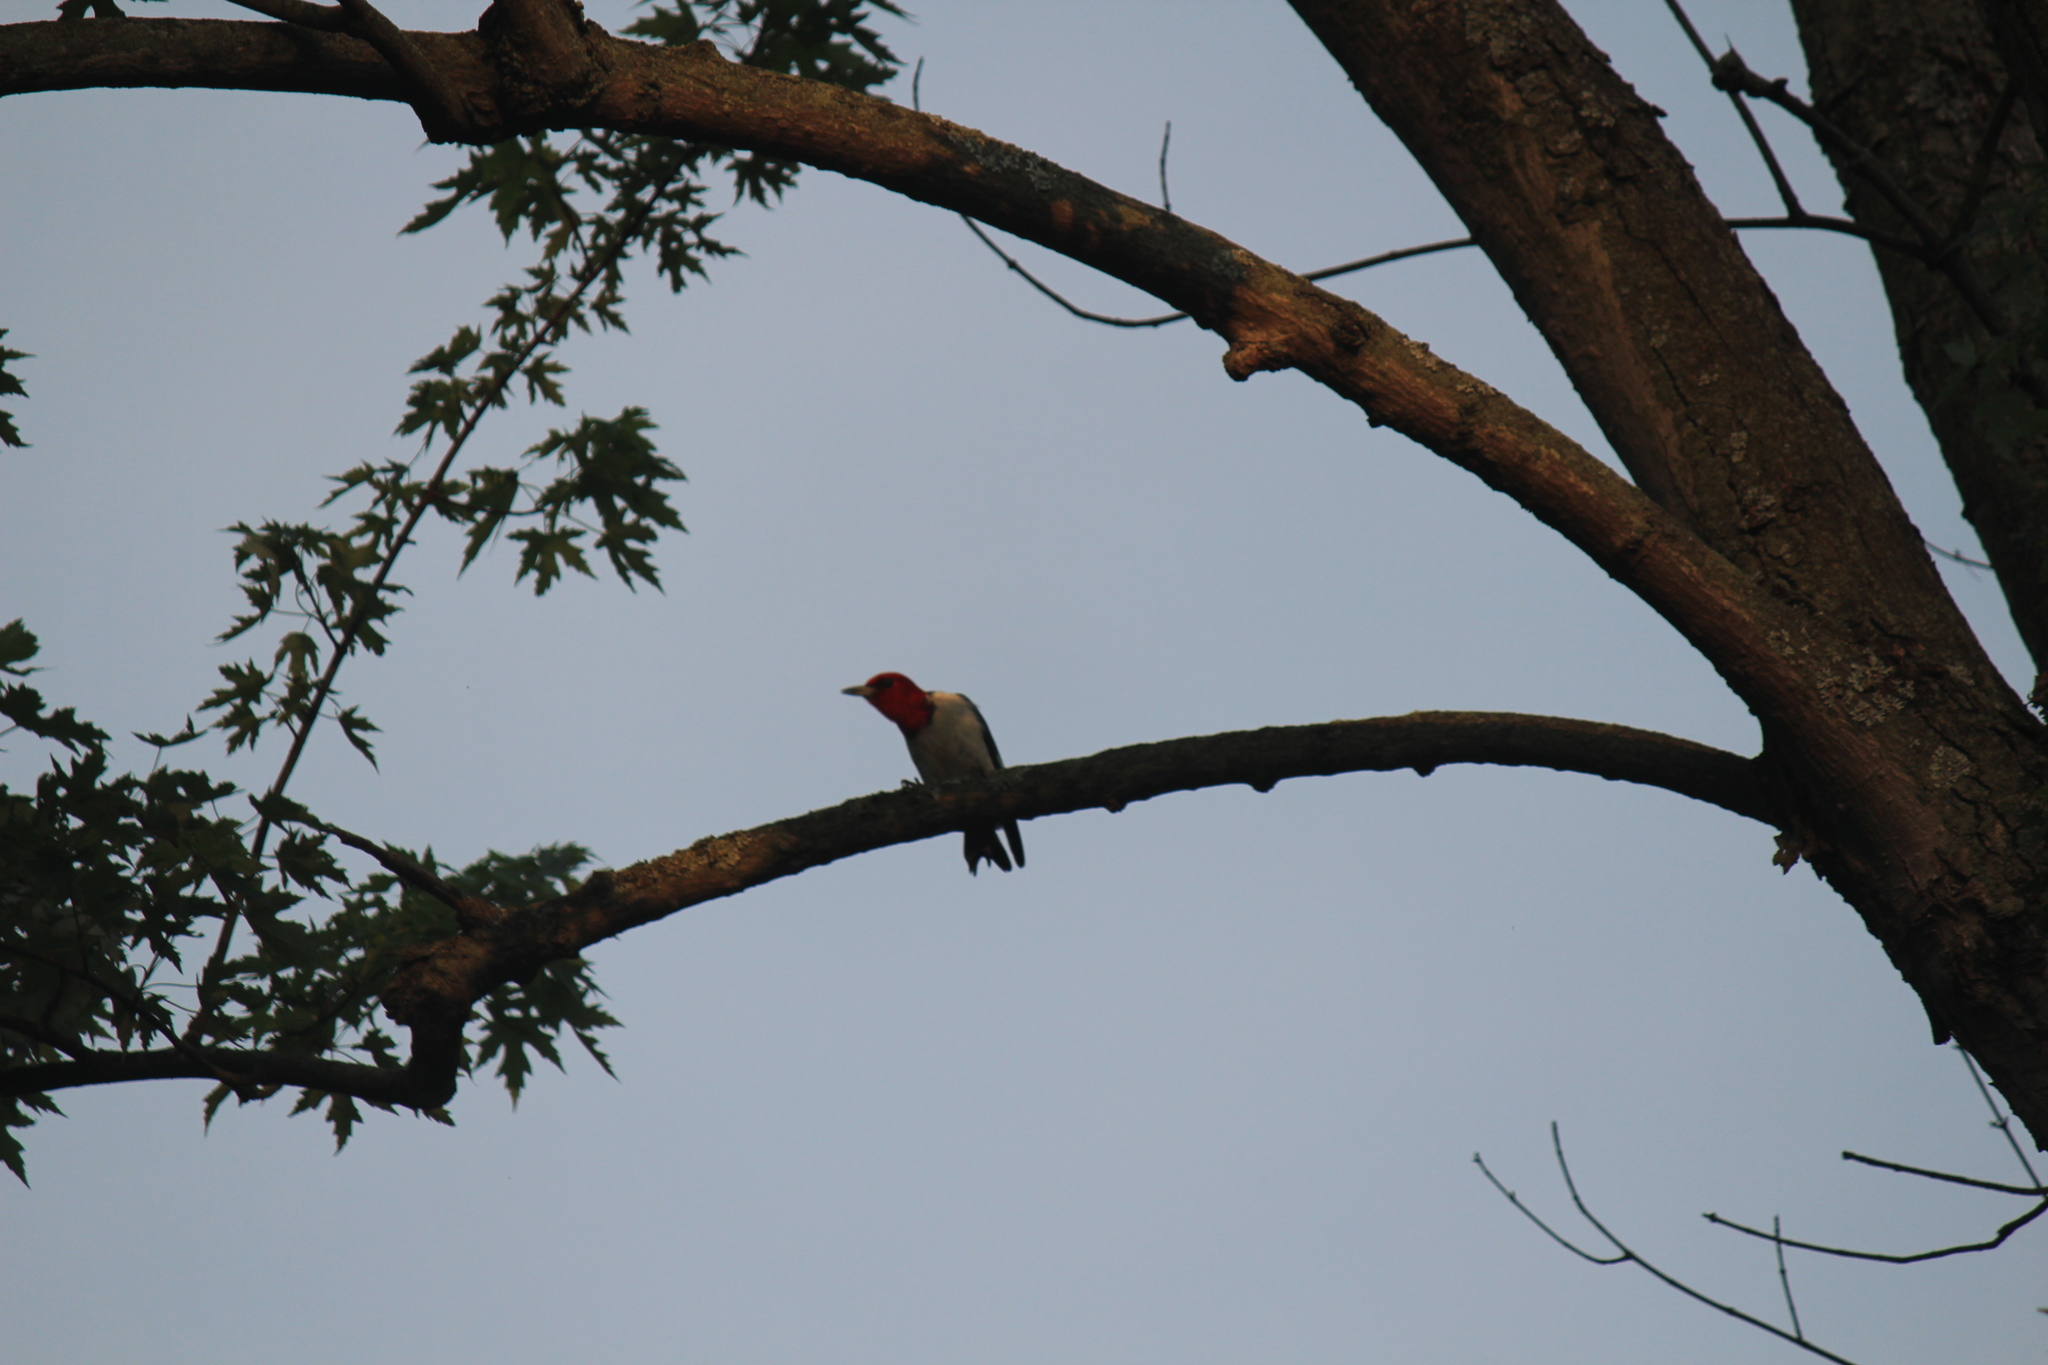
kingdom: Animalia
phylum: Chordata
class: Aves
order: Piciformes
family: Picidae
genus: Melanerpes
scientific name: Melanerpes erythrocephalus
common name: Red-headed woodpecker
